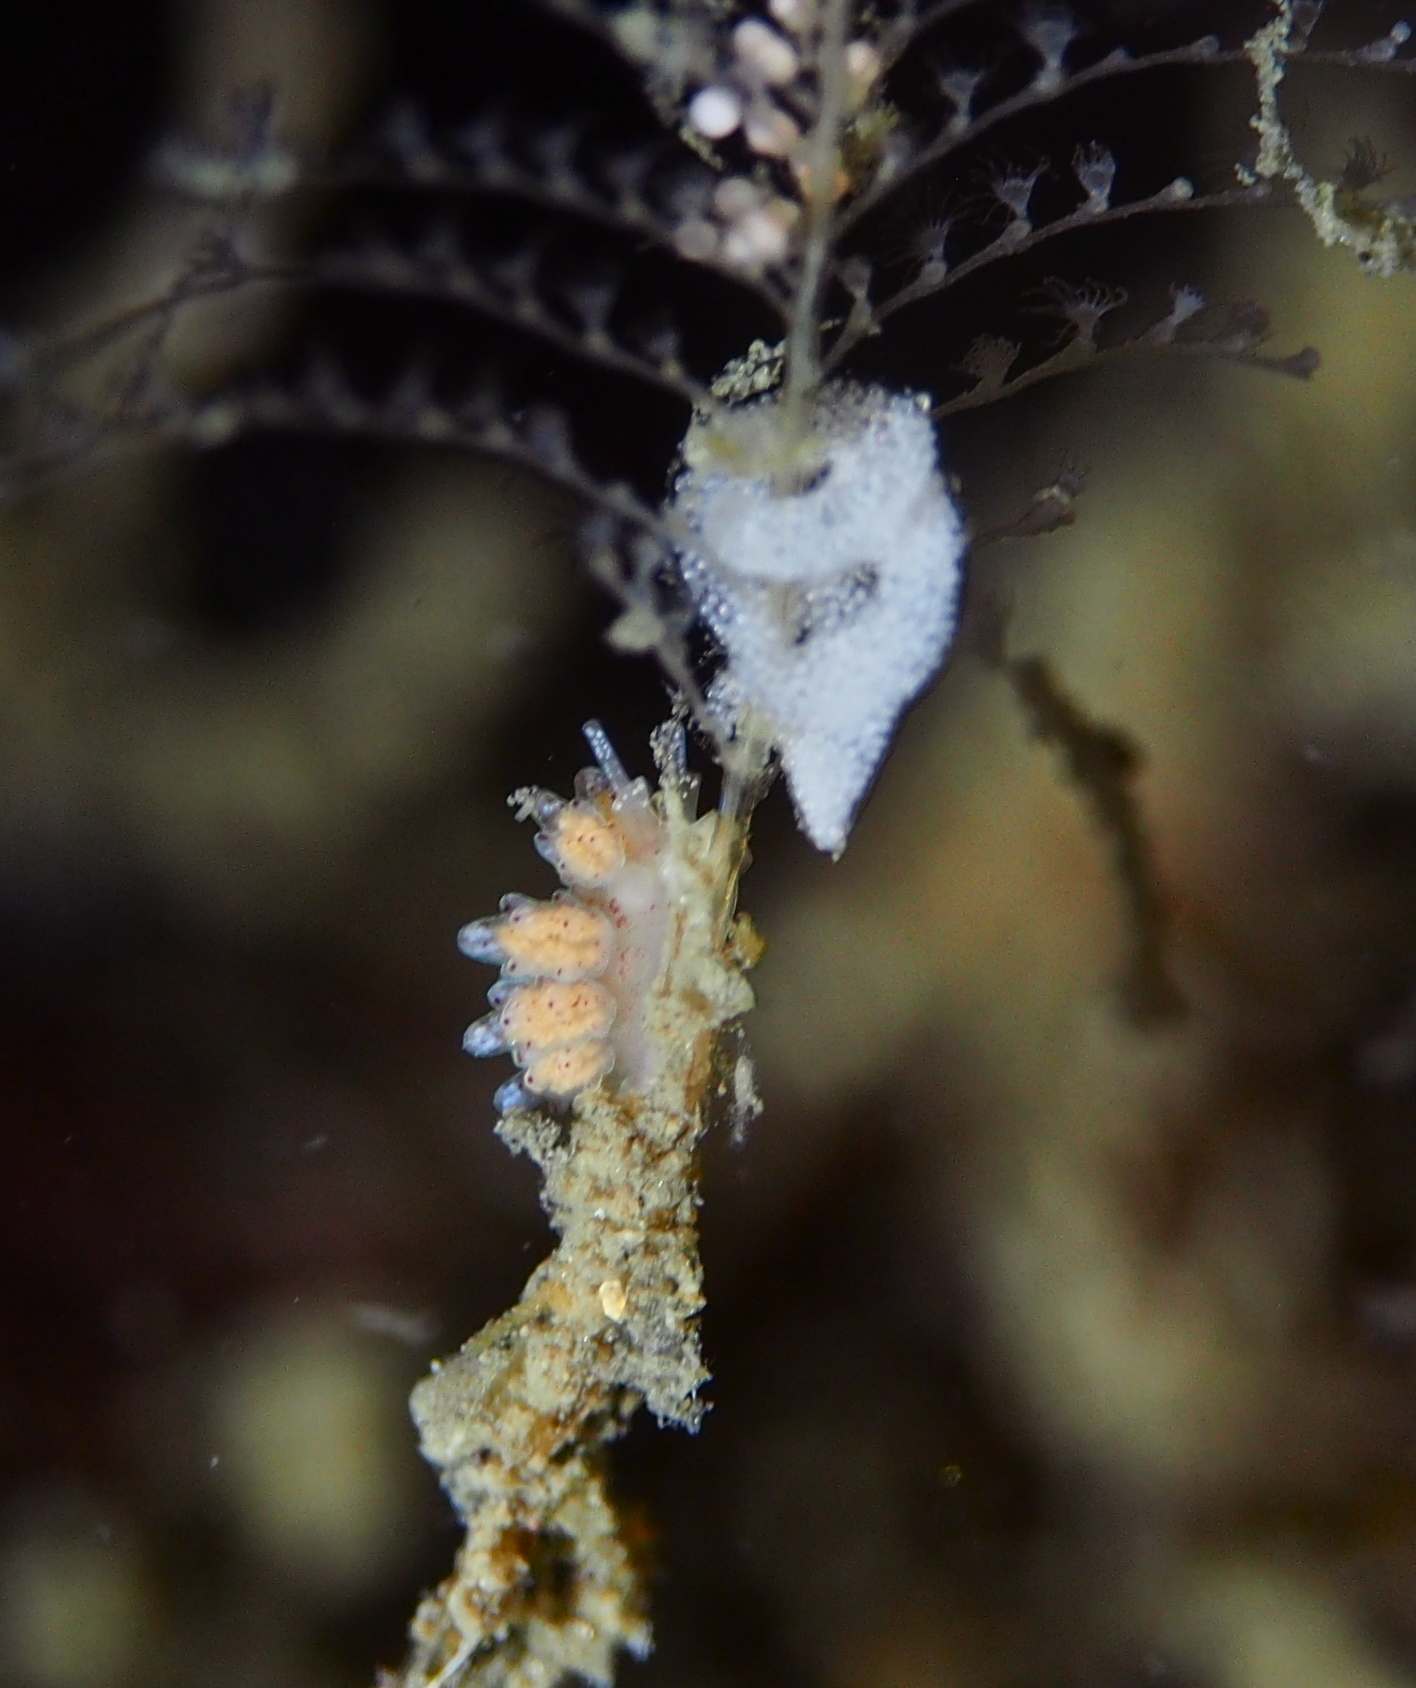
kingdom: Animalia
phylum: Mollusca
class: Gastropoda
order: Nudibranchia
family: Dotidae
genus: Doto
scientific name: Doto dunnei
